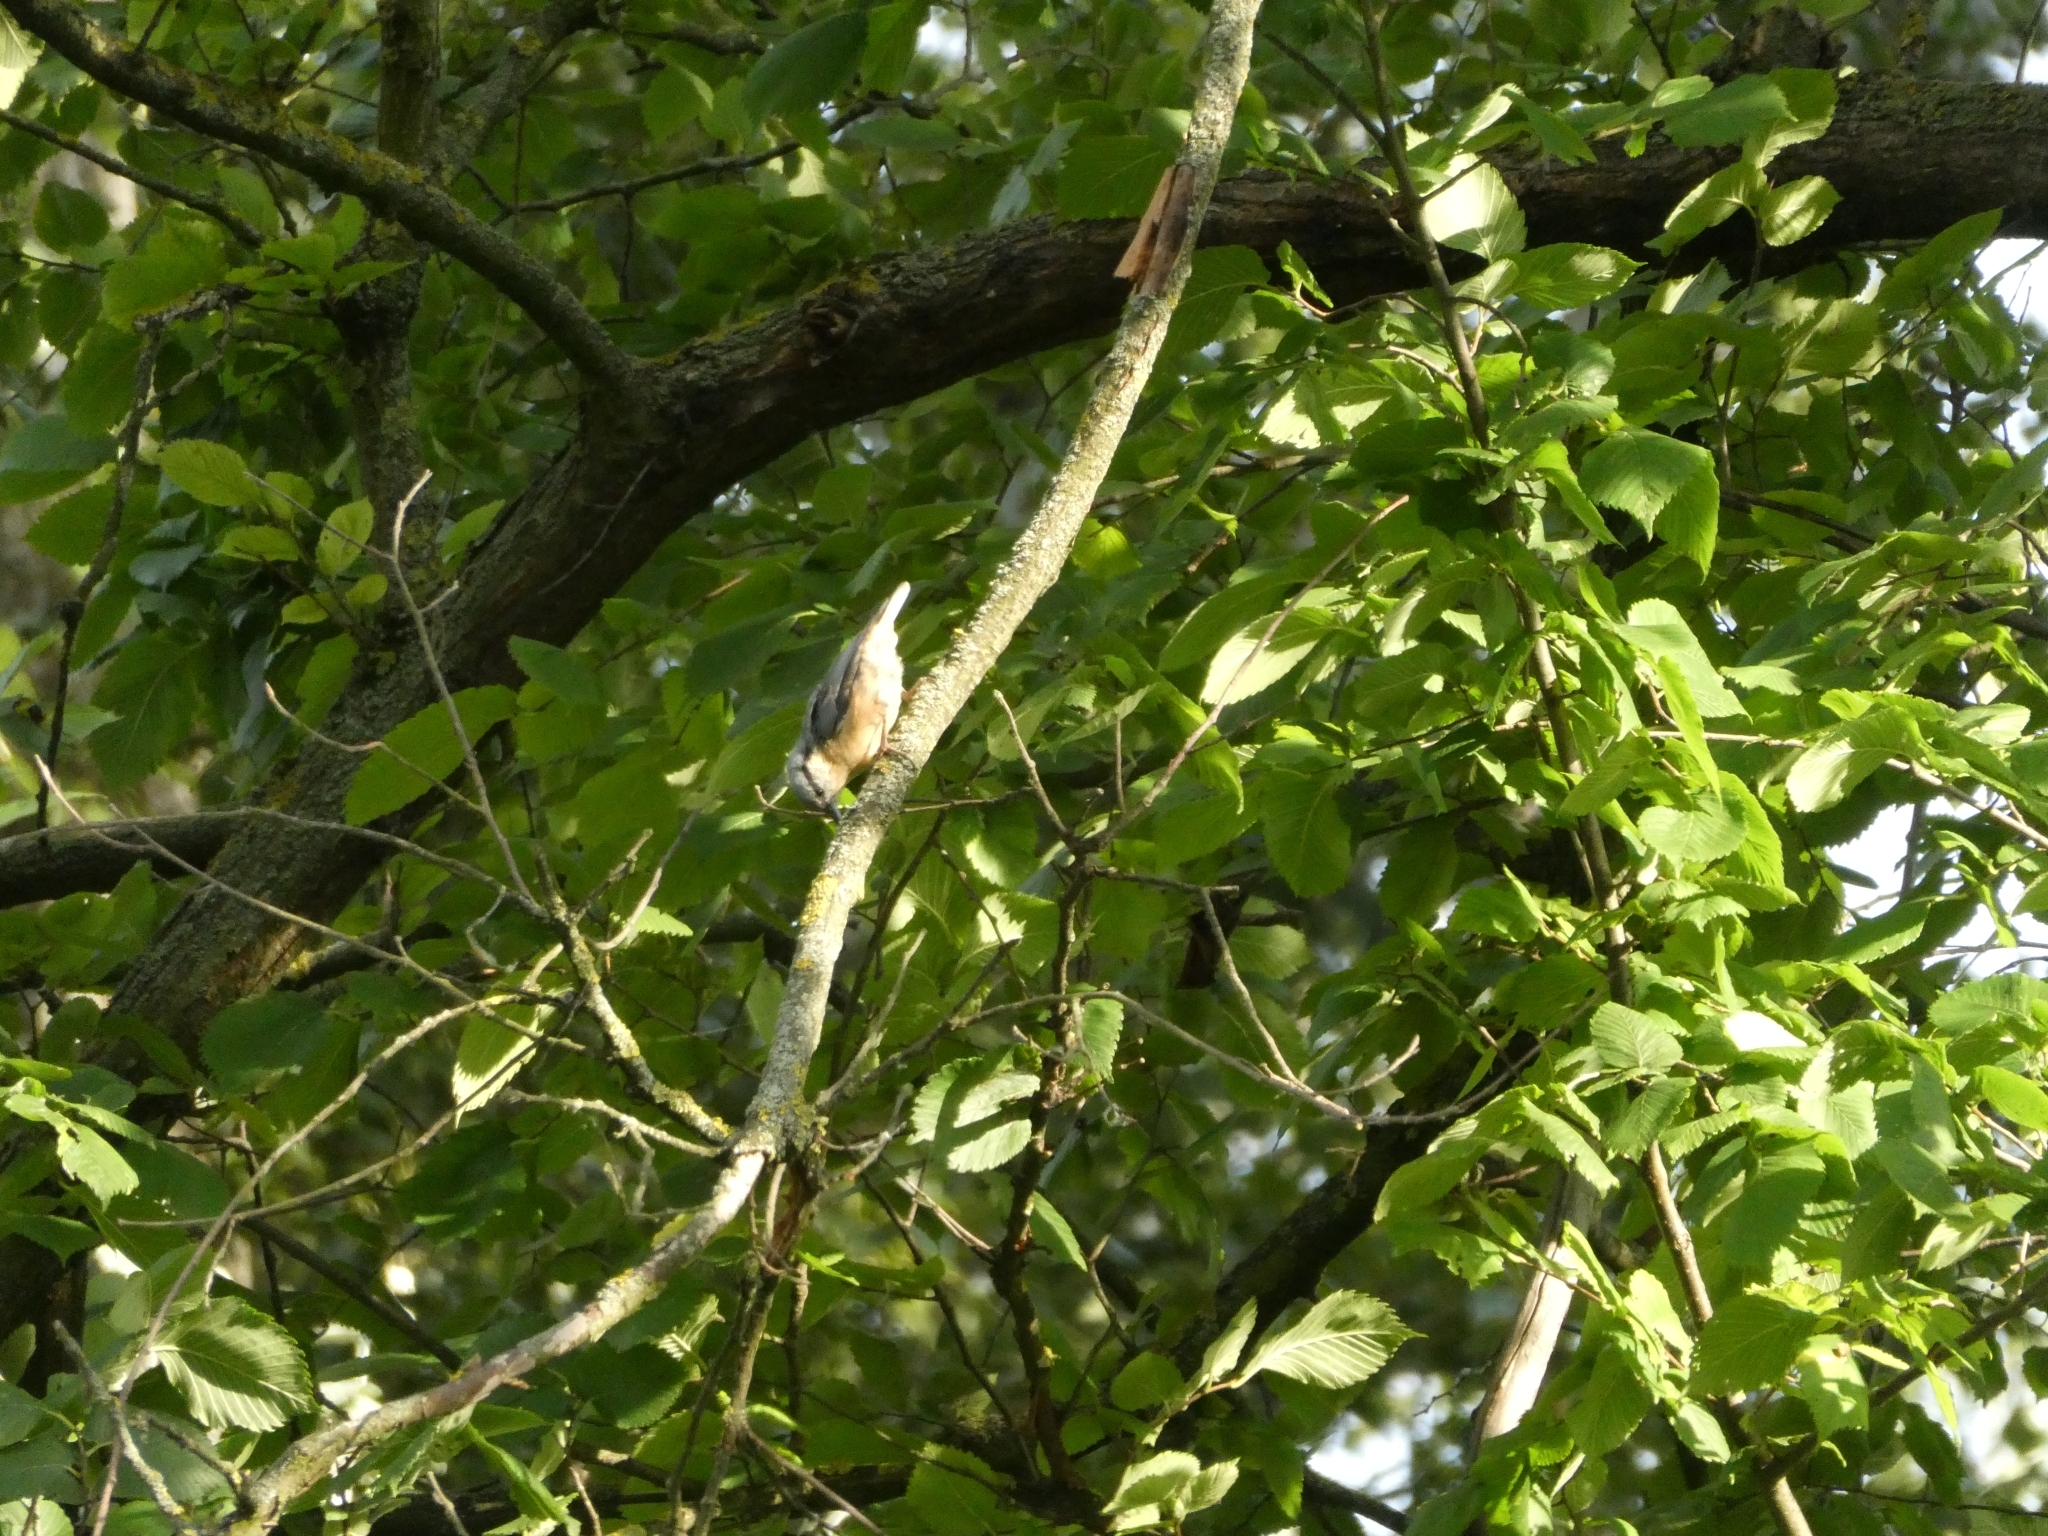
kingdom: Animalia
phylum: Chordata
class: Aves
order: Passeriformes
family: Sittidae
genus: Sitta
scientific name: Sitta europaea
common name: Eurasian nuthatch
